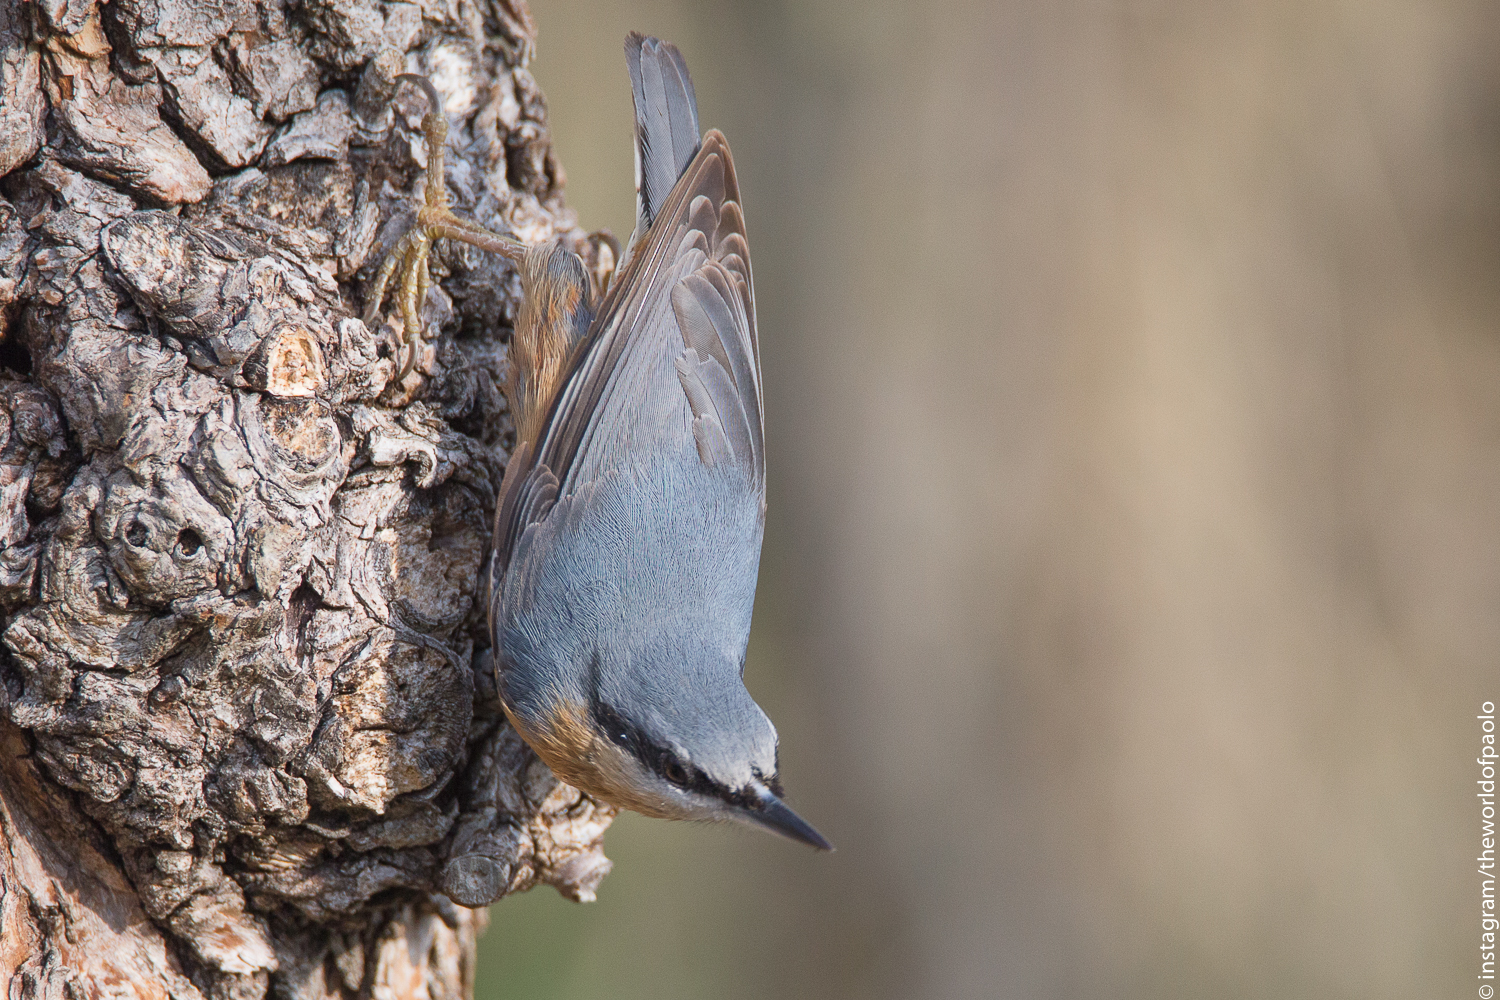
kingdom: Animalia
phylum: Chordata
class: Aves
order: Passeriformes
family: Sittidae
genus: Sitta
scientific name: Sitta europaea
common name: Eurasian nuthatch
